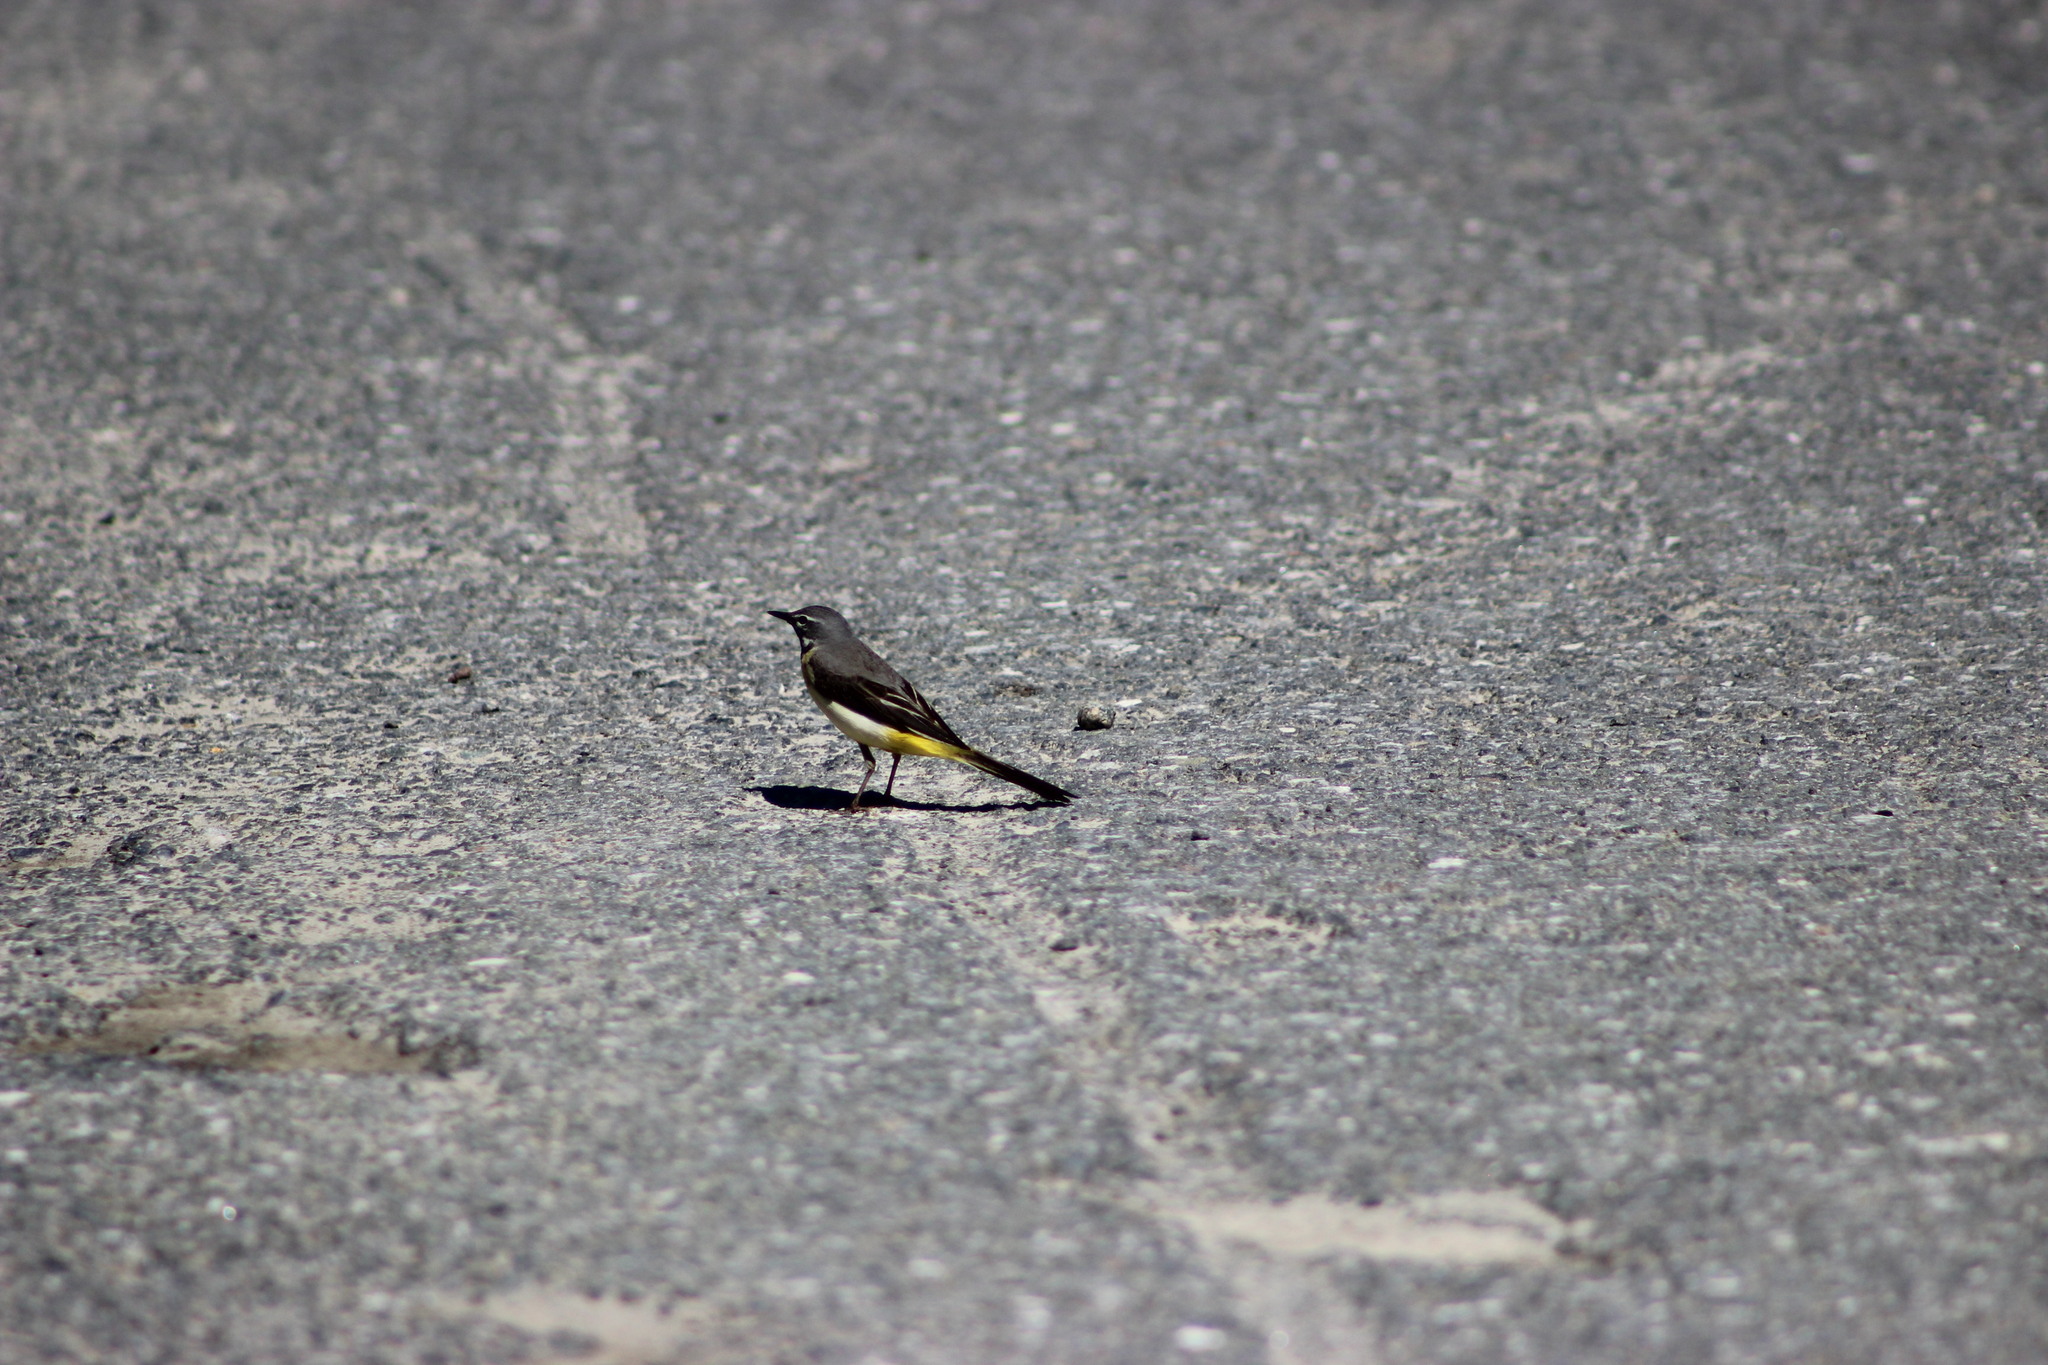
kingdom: Animalia
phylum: Chordata
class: Aves
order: Passeriformes
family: Motacillidae
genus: Motacilla
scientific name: Motacilla cinerea
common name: Grey wagtail
